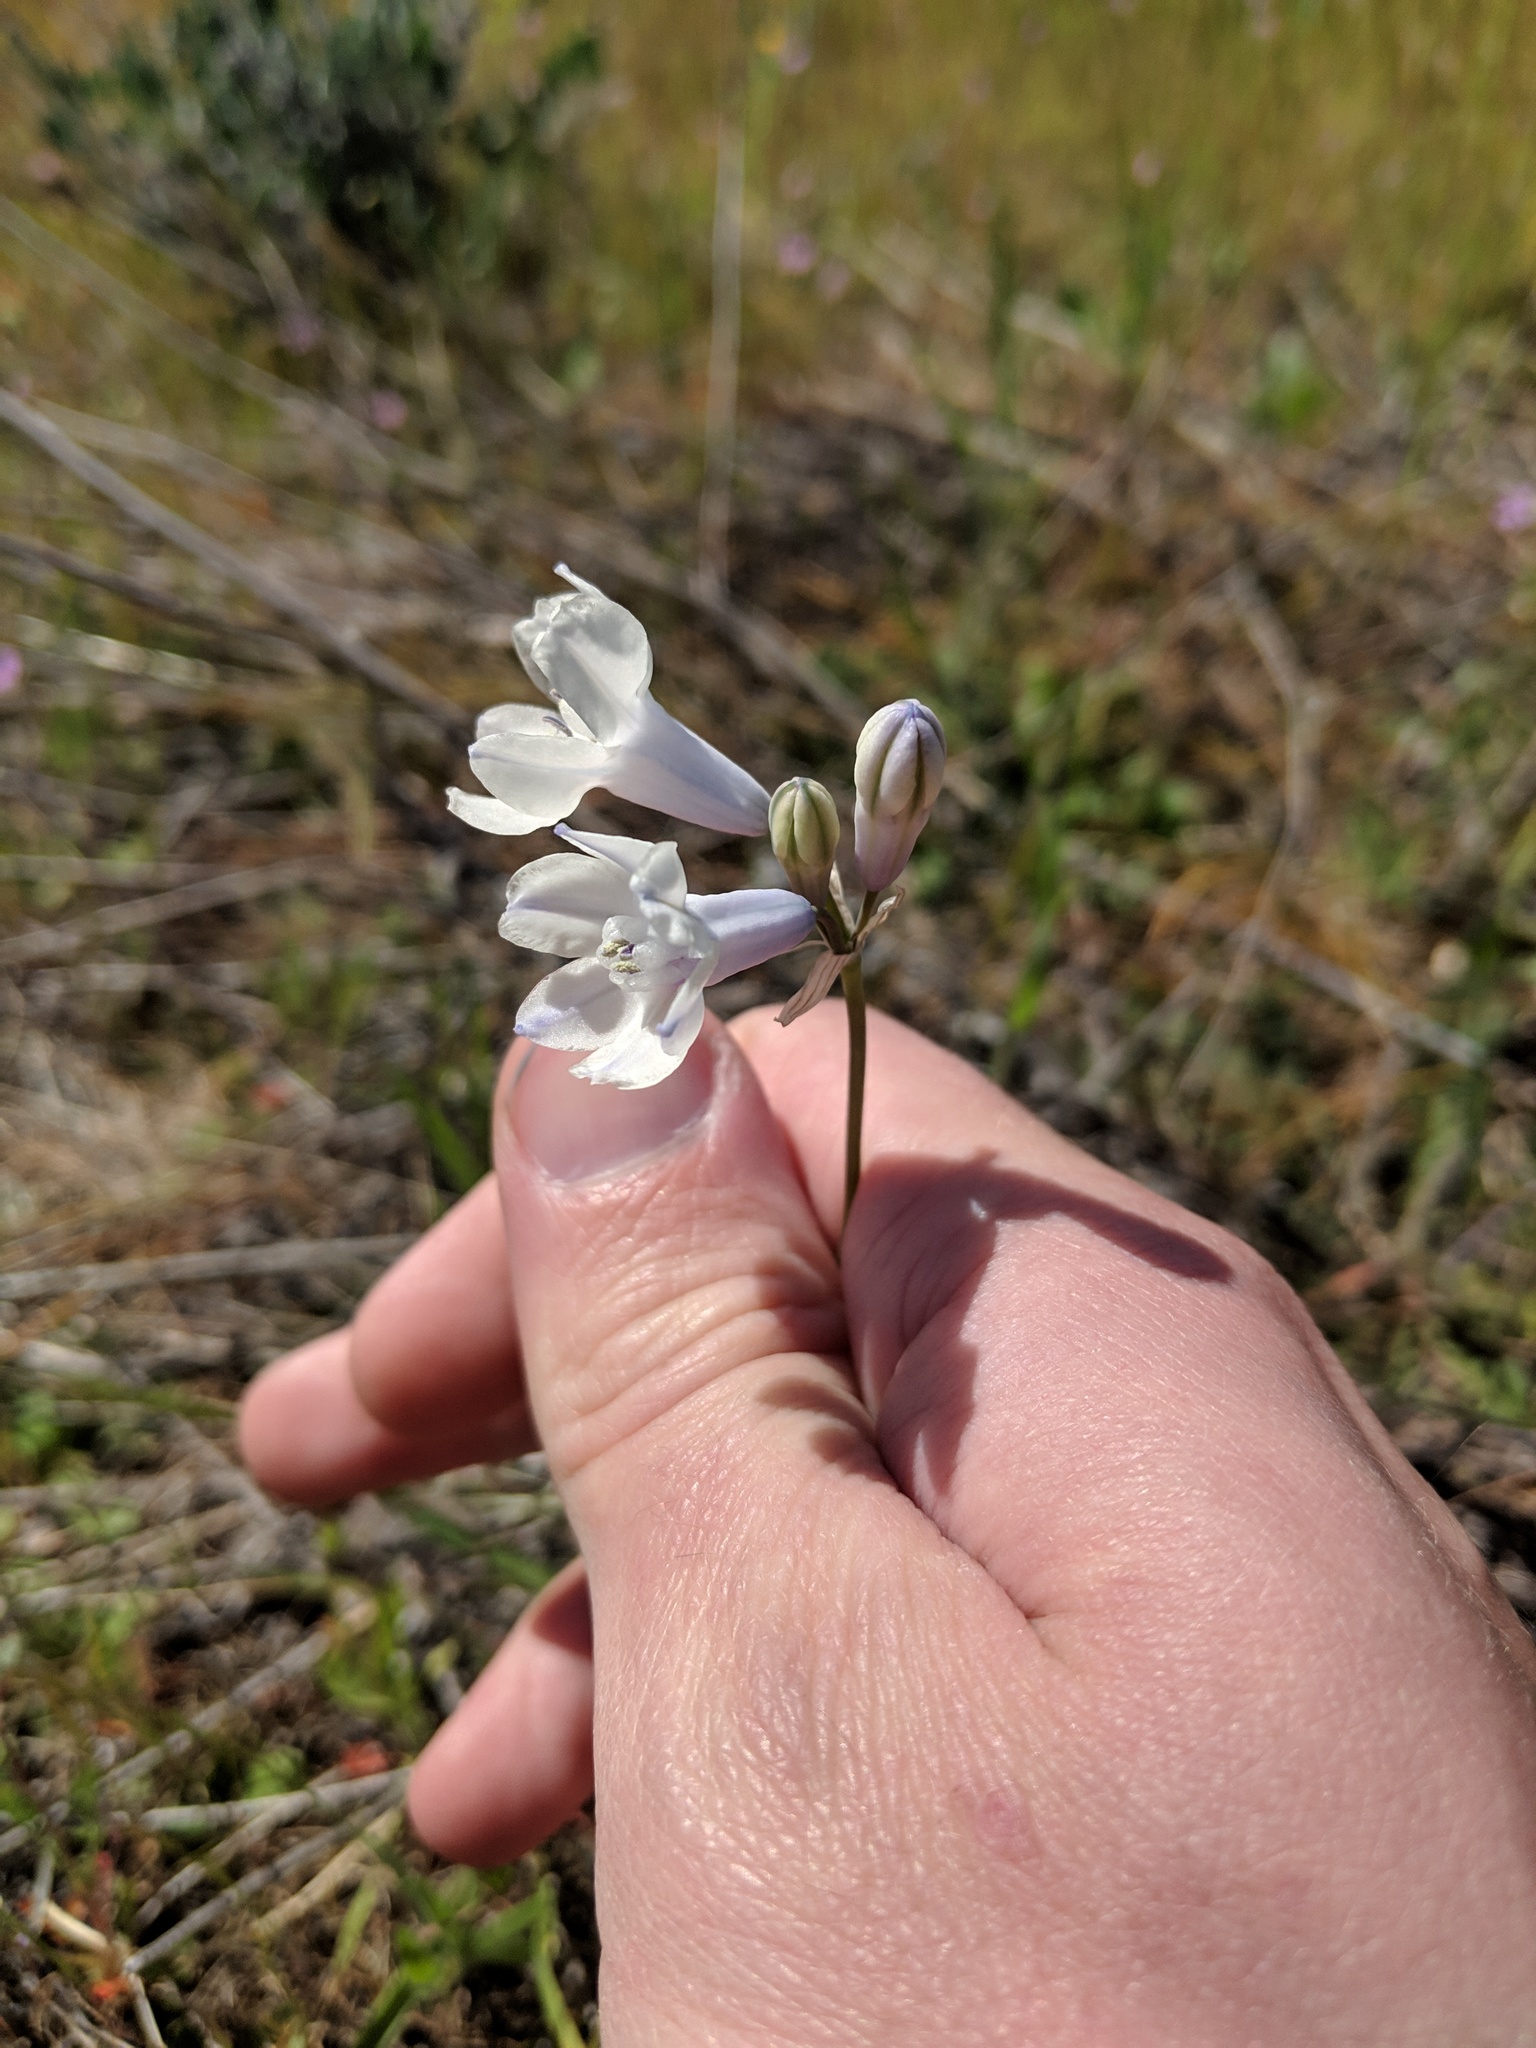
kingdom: Plantae
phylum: Tracheophyta
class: Liliopsida
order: Asparagales
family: Asparagaceae
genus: Triteleia
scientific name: Triteleia grandiflora
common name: Wild hyacinth
